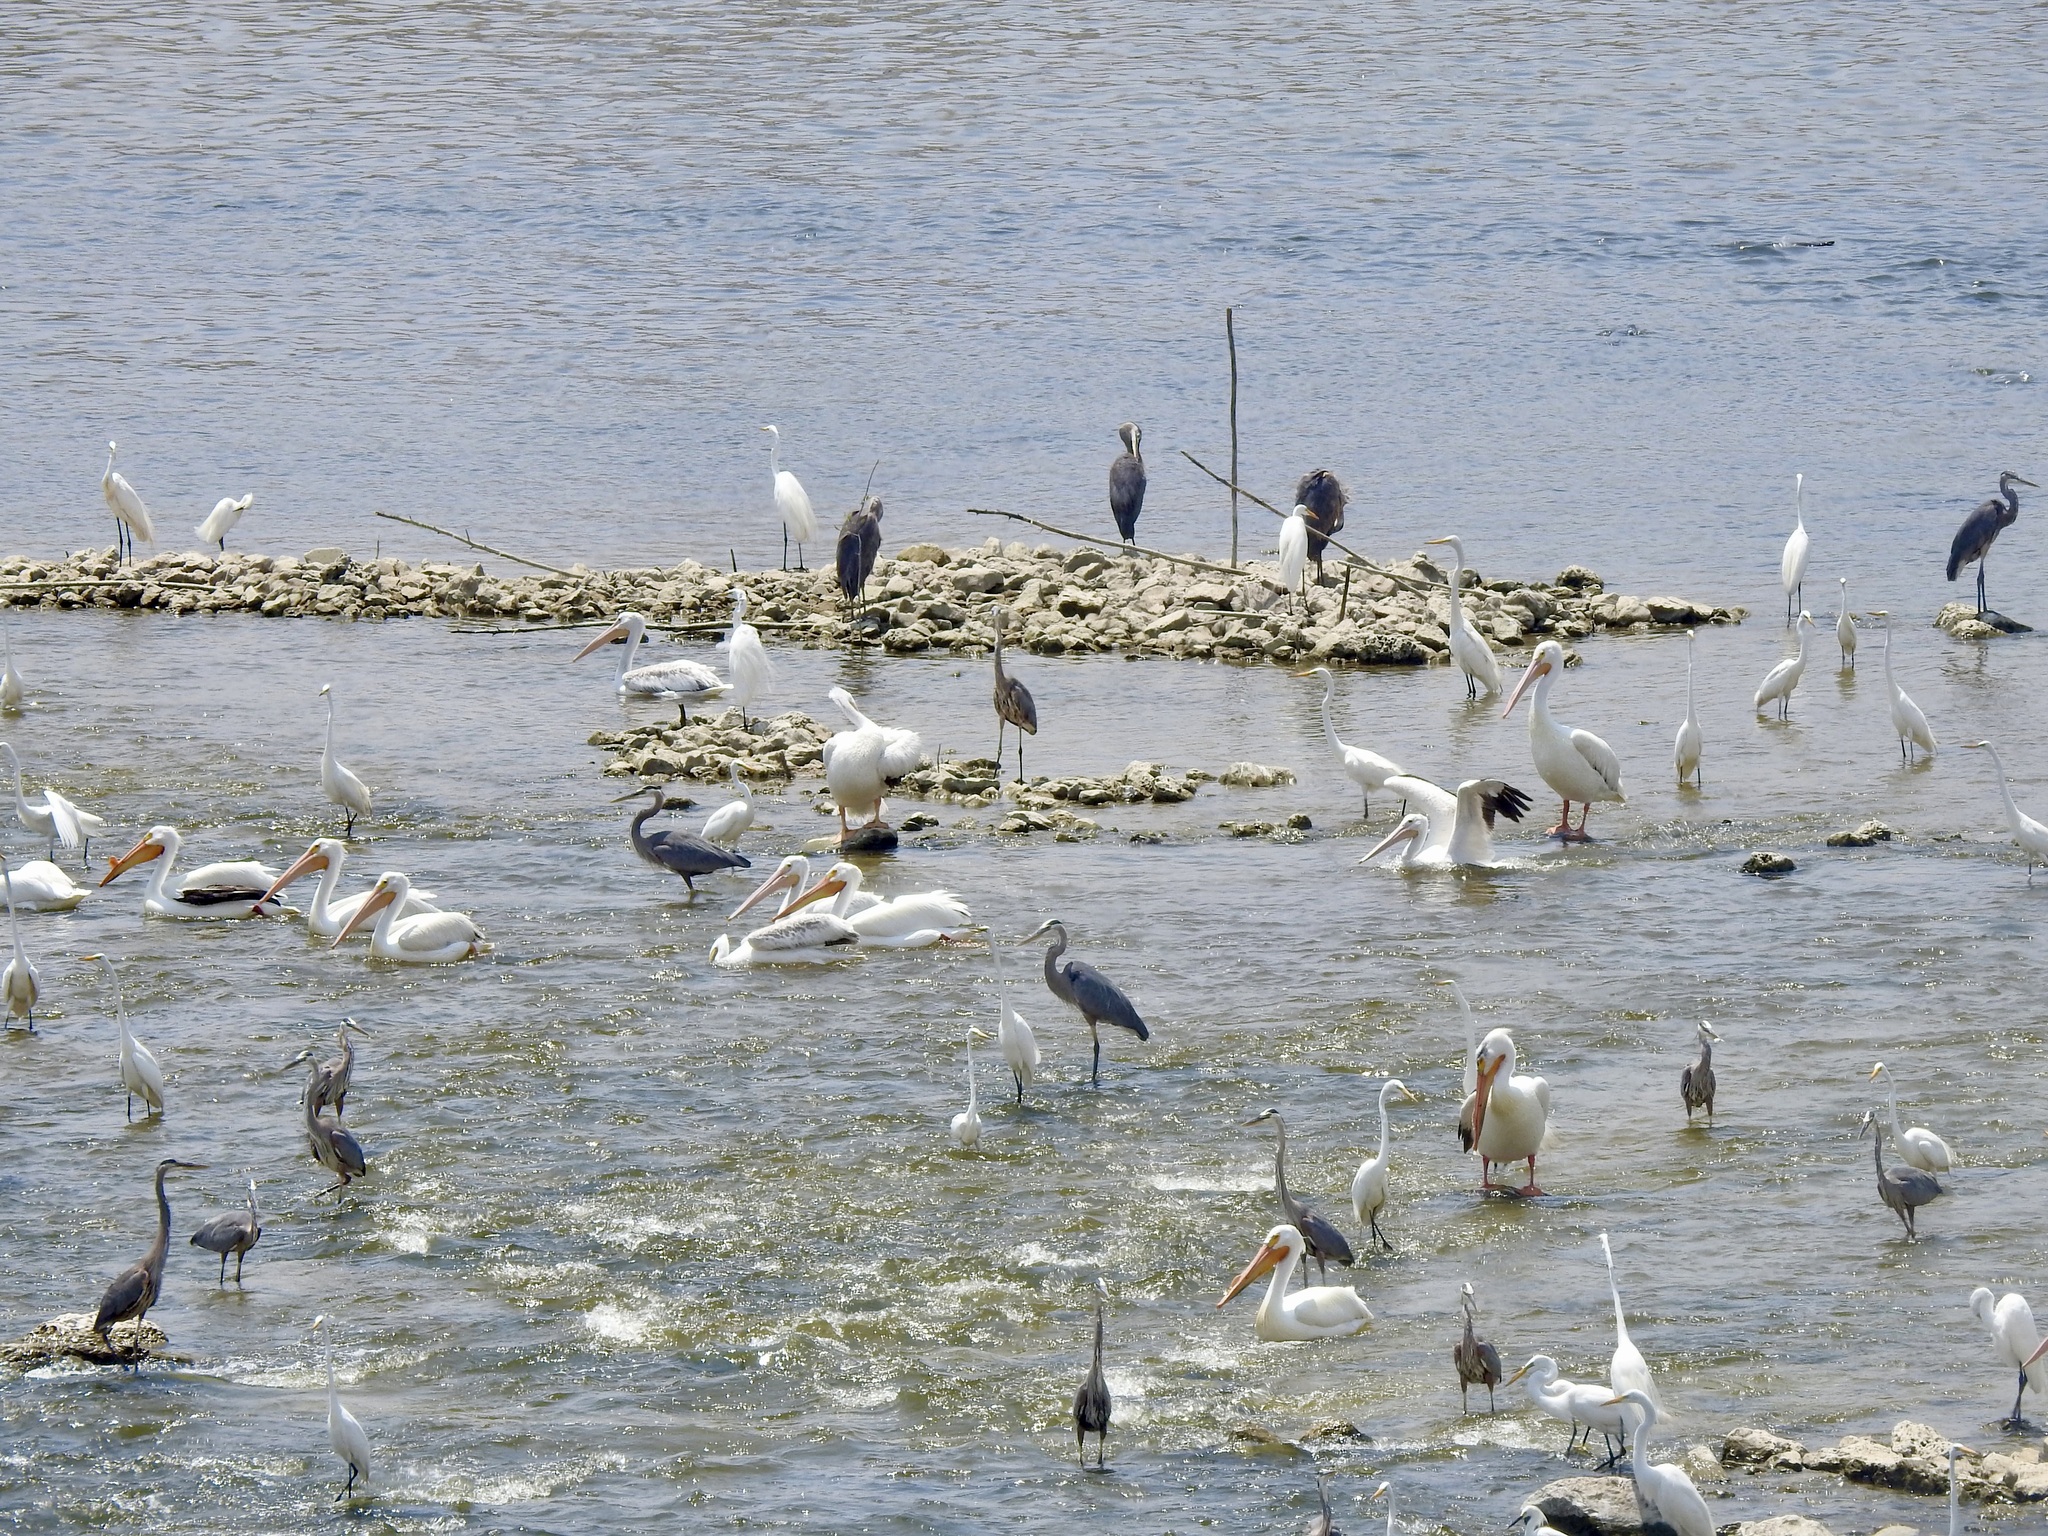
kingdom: Animalia
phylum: Chordata
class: Aves
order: Pelecaniformes
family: Pelecanidae
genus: Pelecanus
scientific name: Pelecanus erythrorhynchos
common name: American white pelican
